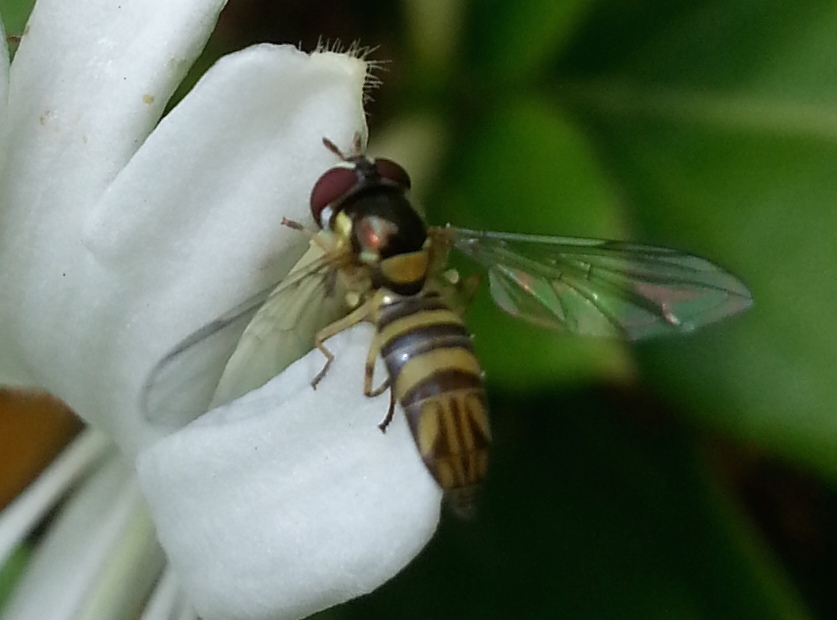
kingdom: Animalia
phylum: Arthropoda
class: Insecta
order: Diptera
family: Syrphidae
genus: Allograpta
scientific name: Allograpta obliqua
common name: Common oblique syrphid
